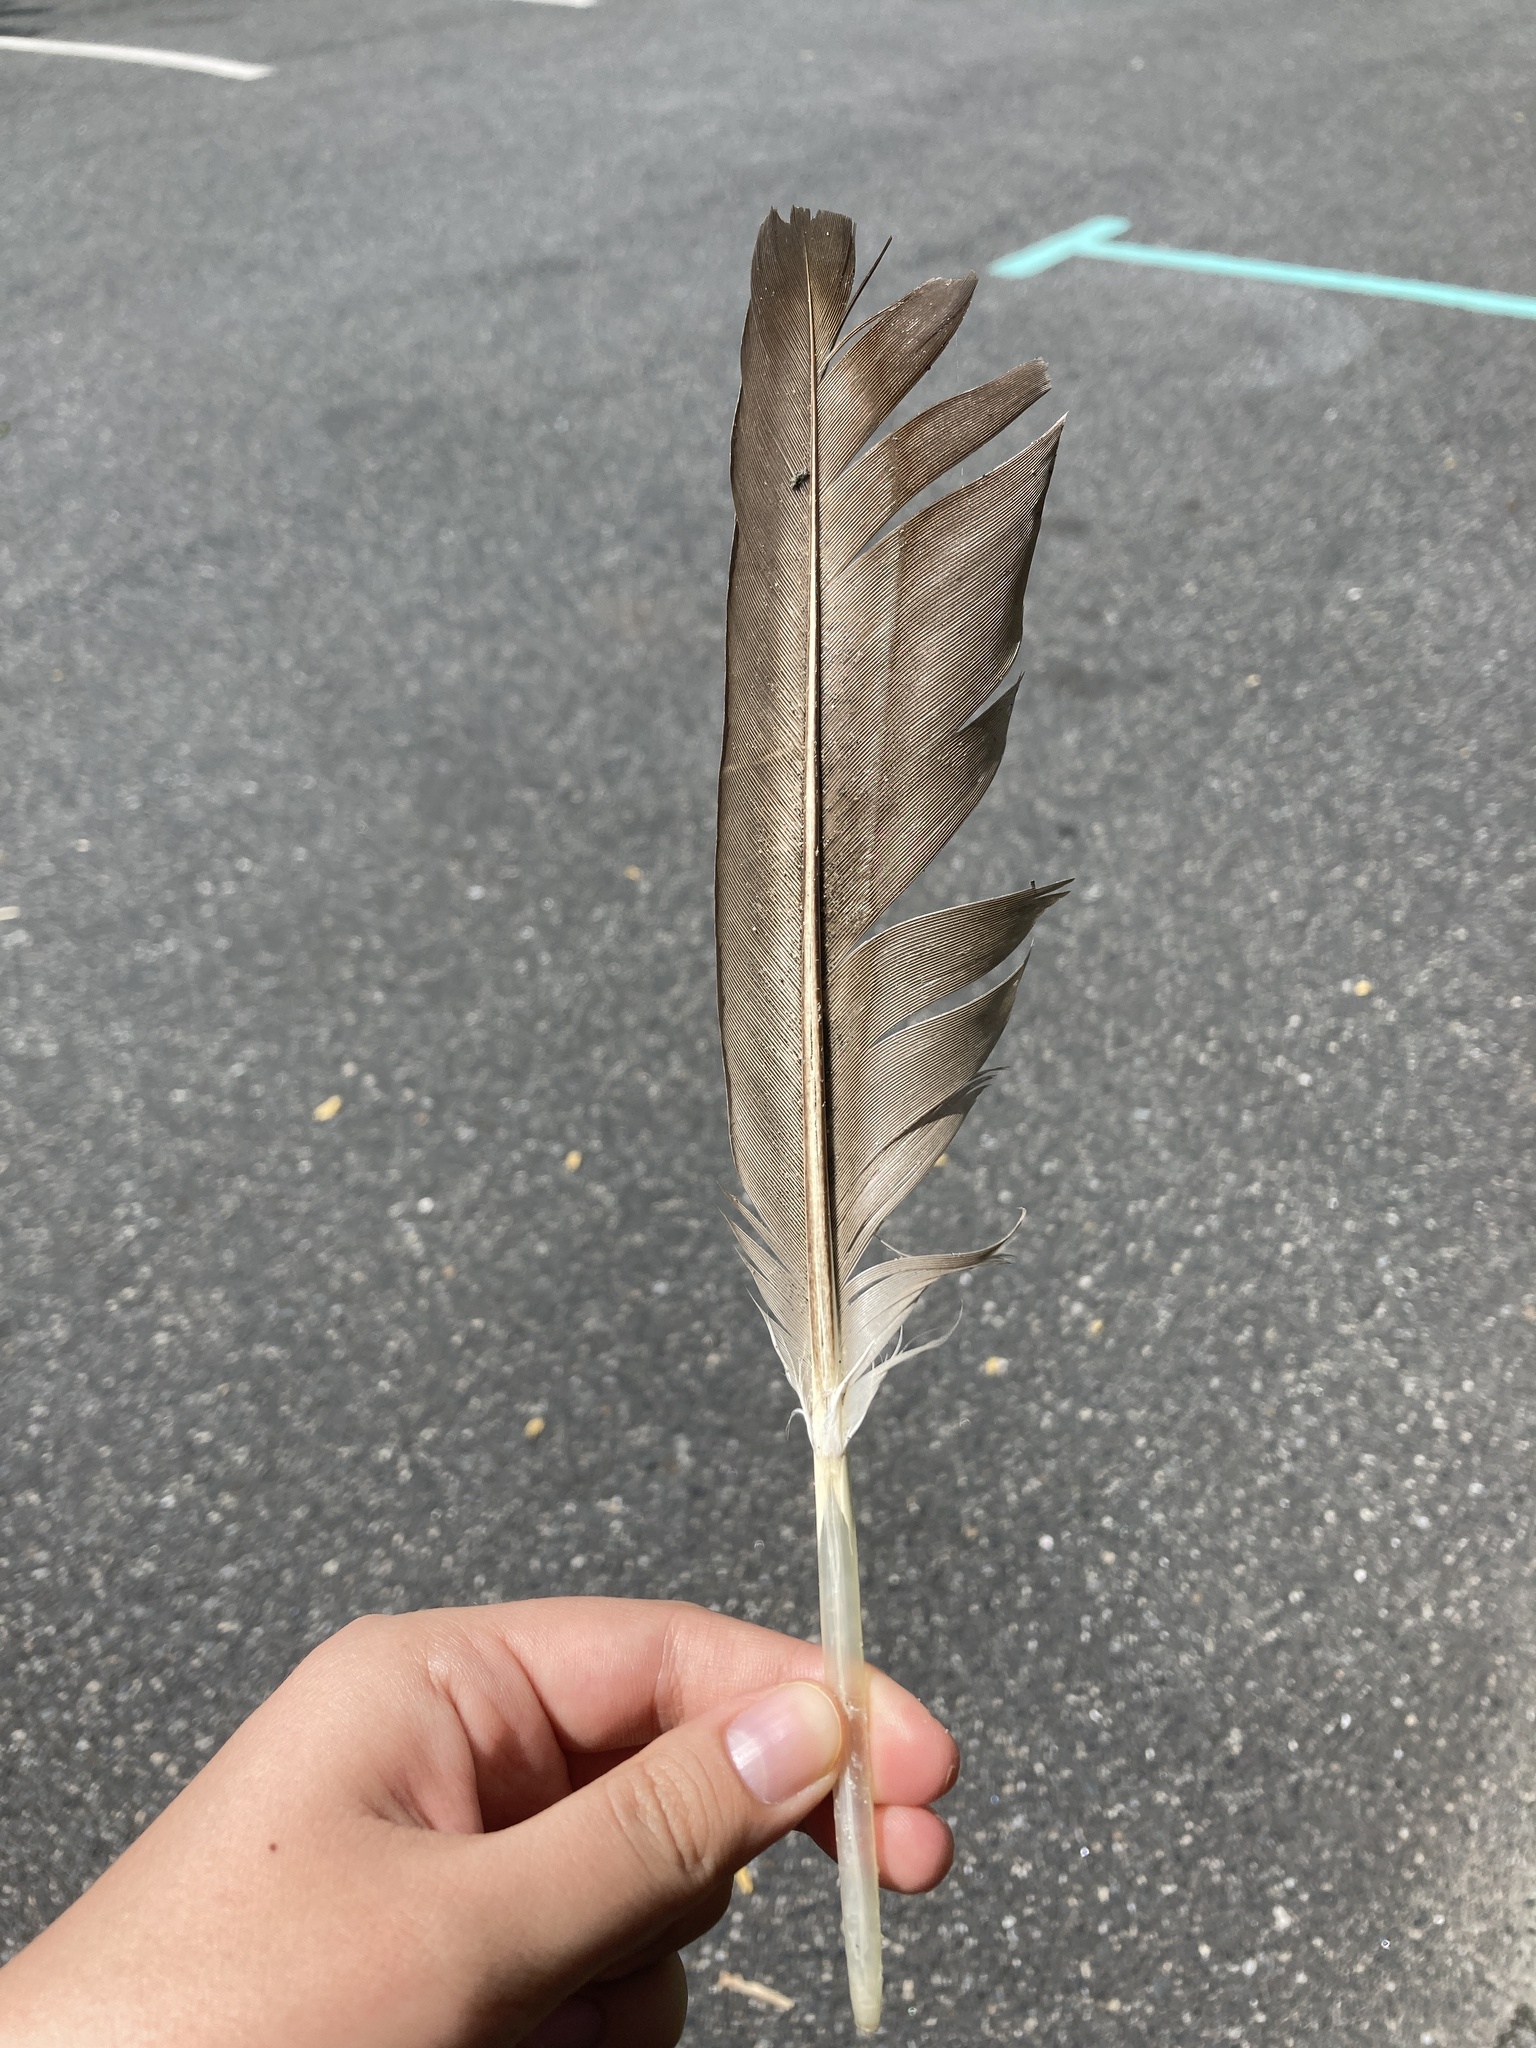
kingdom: Animalia
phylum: Chordata
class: Aves
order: Anseriformes
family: Anatidae
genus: Branta
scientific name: Branta canadensis
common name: Canada goose
